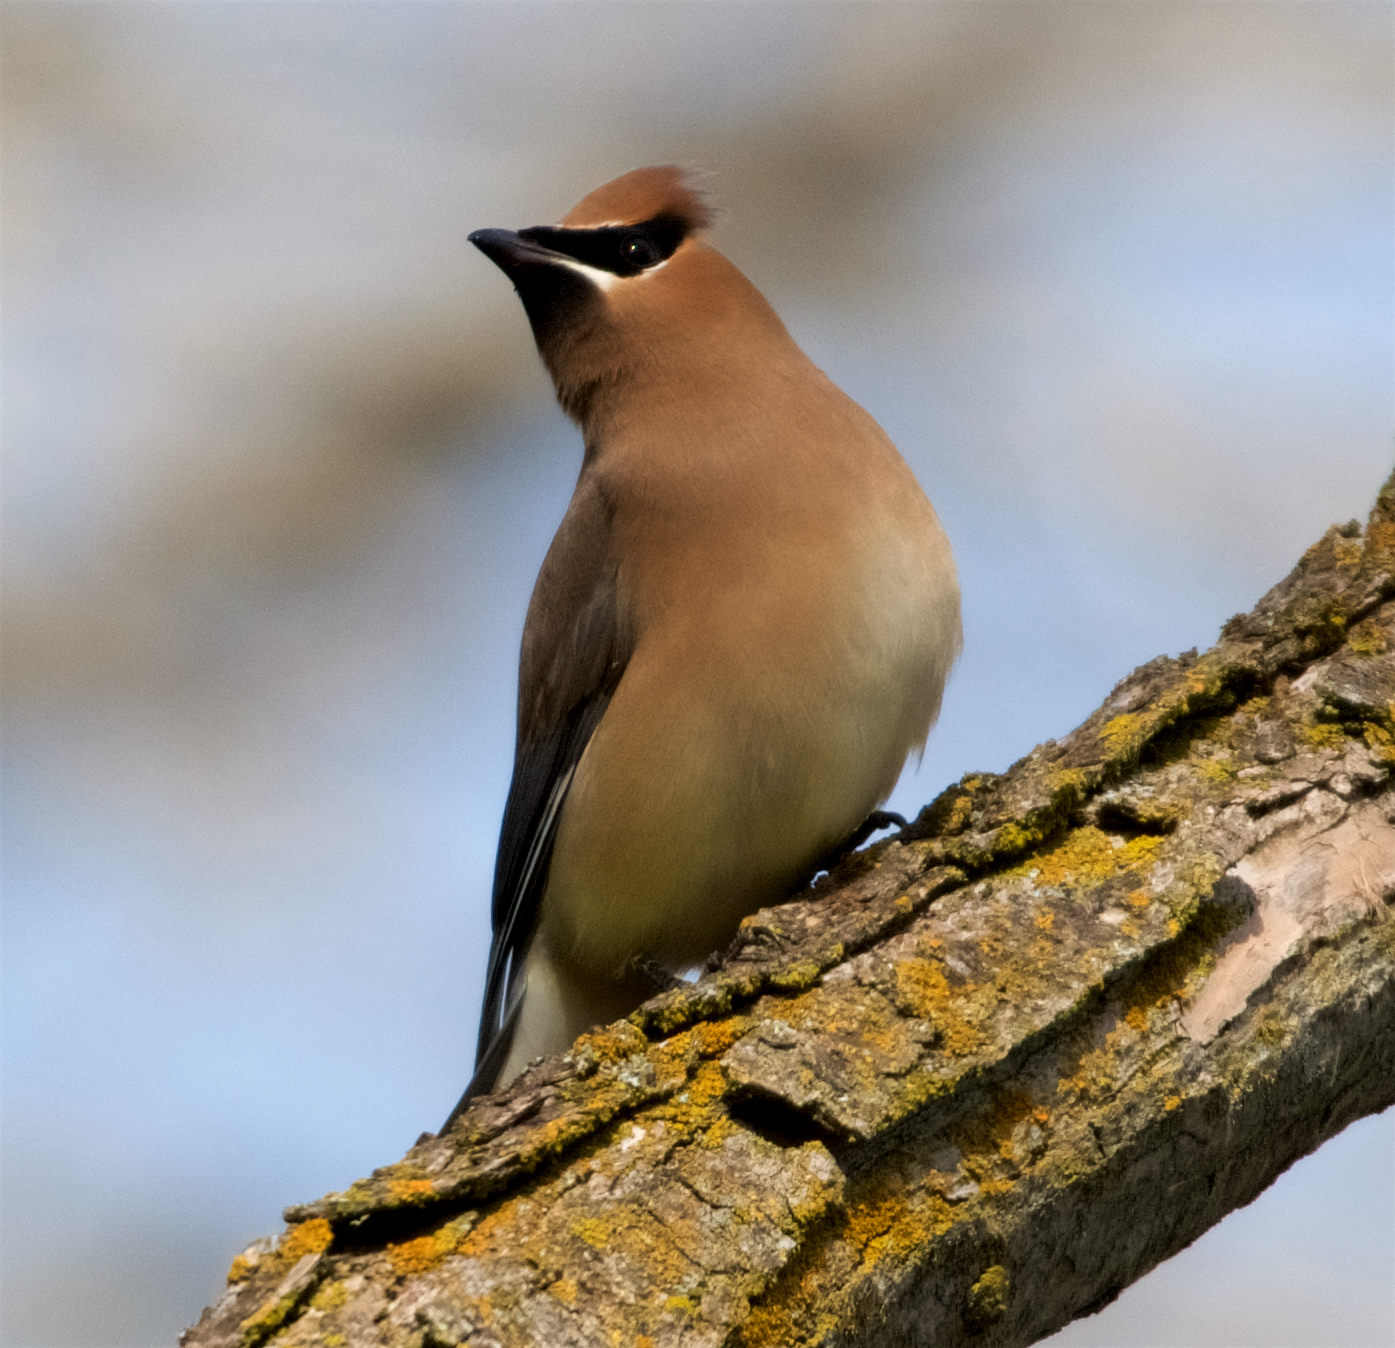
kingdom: Animalia
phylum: Chordata
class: Aves
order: Passeriformes
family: Bombycillidae
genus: Bombycilla
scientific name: Bombycilla cedrorum
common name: Cedar waxwing
